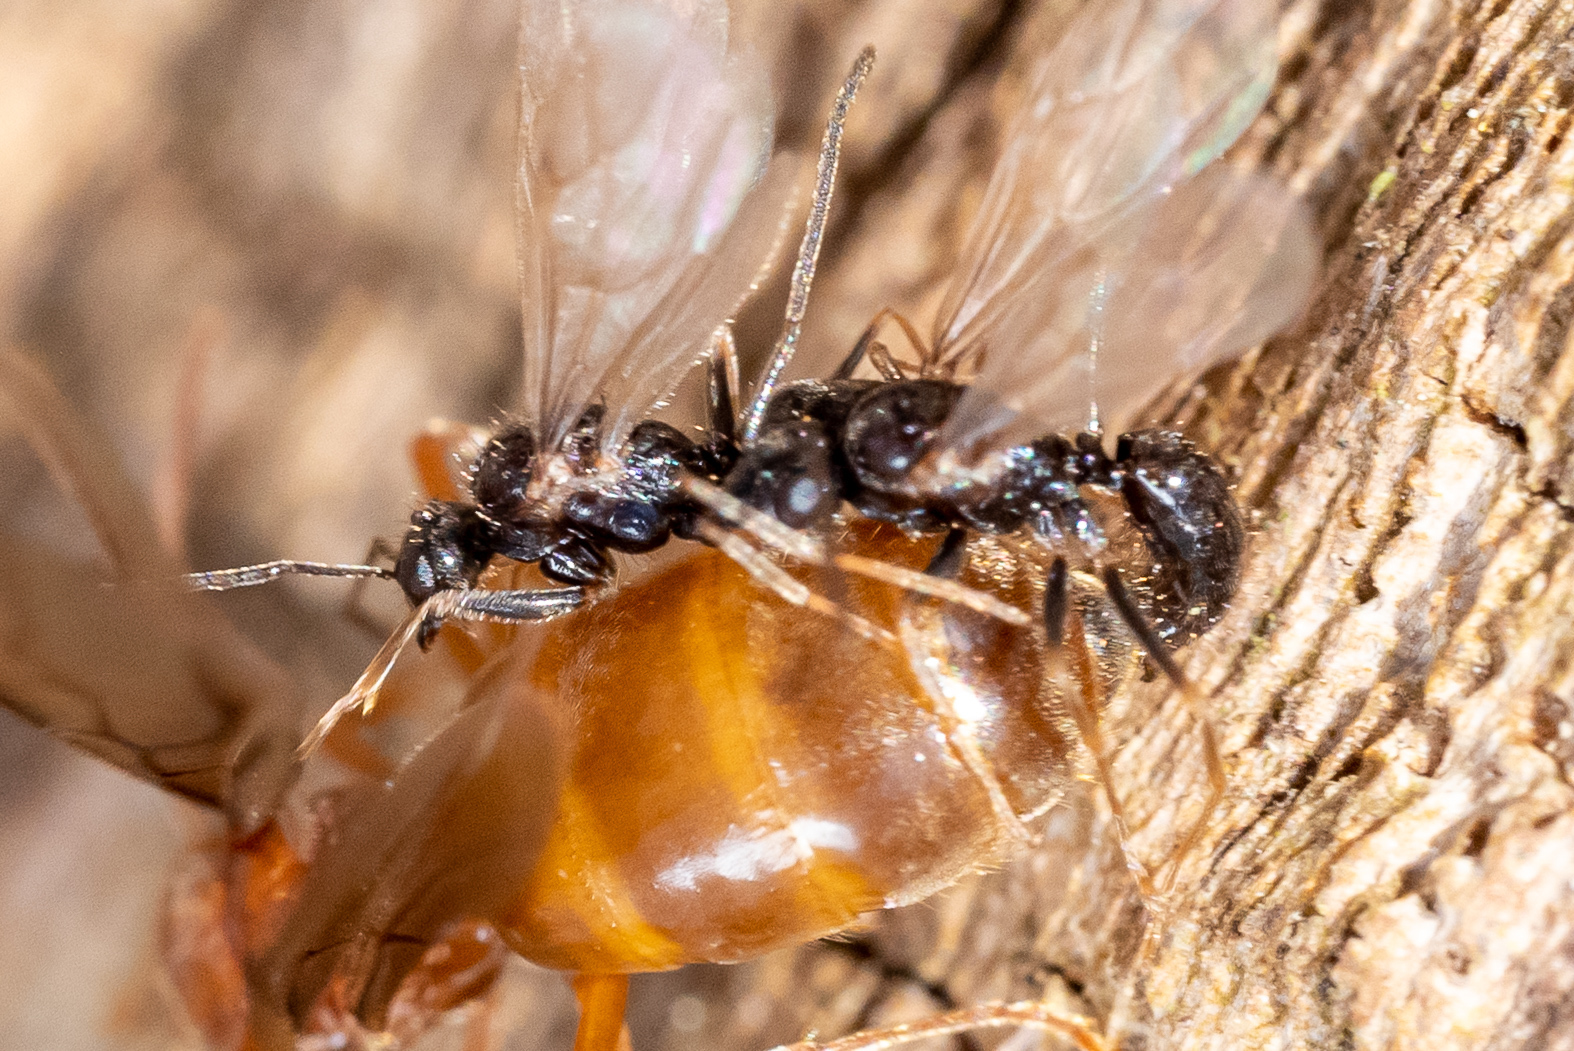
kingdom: Animalia
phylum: Arthropoda
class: Insecta
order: Hymenoptera
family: Formicidae
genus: Prenolepis
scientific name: Prenolepis imparis
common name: Small honey ant
